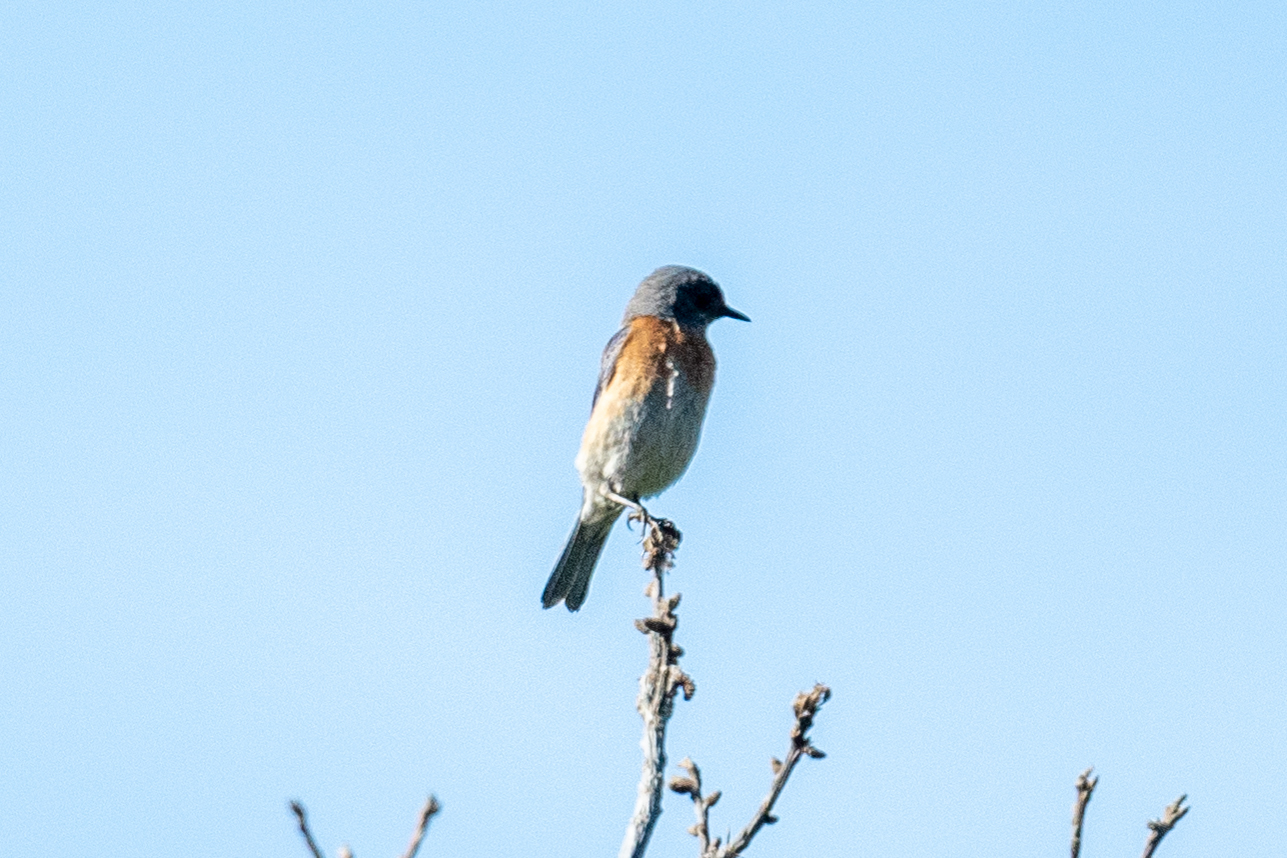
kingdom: Animalia
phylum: Chordata
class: Aves
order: Passeriformes
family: Turdidae
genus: Sialia
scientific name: Sialia mexicana
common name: Western bluebird
